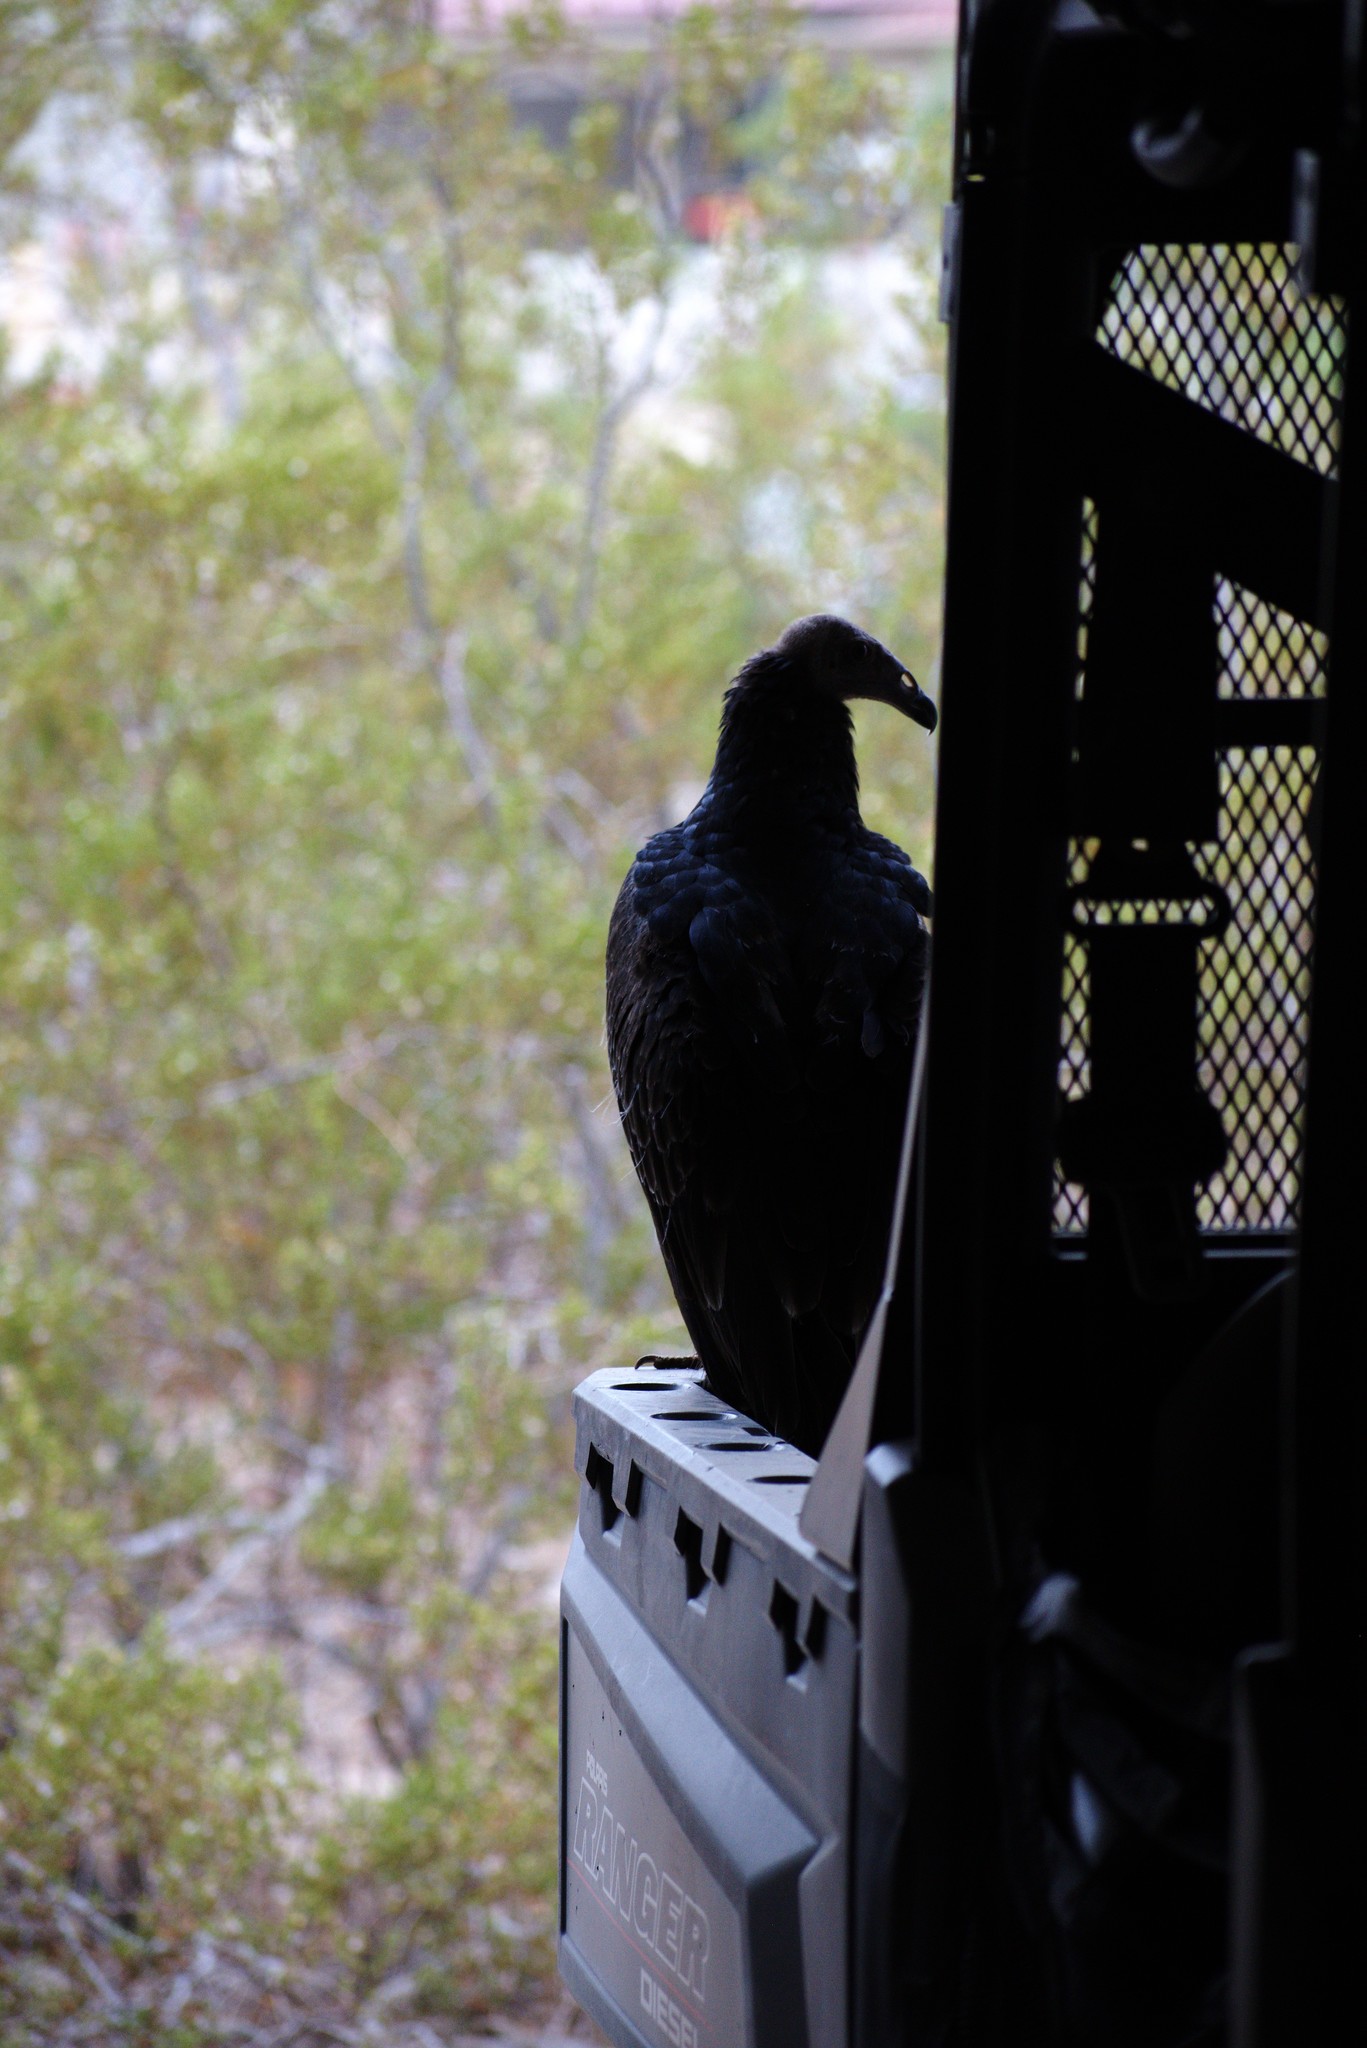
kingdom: Animalia
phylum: Chordata
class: Aves
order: Accipitriformes
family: Cathartidae
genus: Cathartes
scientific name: Cathartes aura
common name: Turkey vulture
